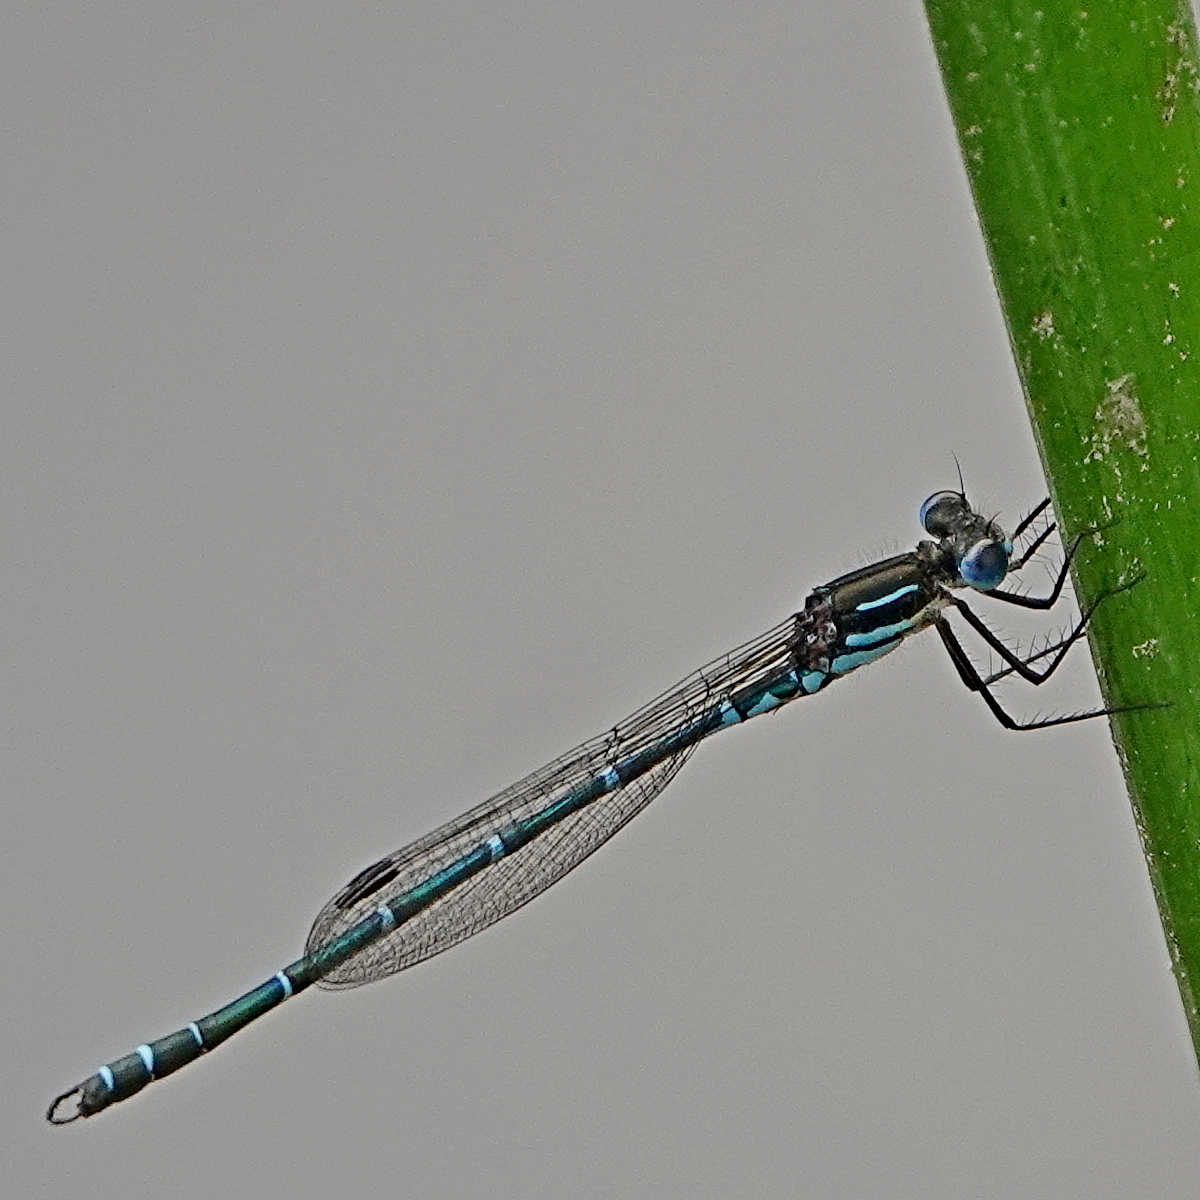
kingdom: Animalia
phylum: Arthropoda
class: Insecta
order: Odonata
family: Lestidae
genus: Austrolestes
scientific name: Austrolestes psyche
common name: Cup ringtail
